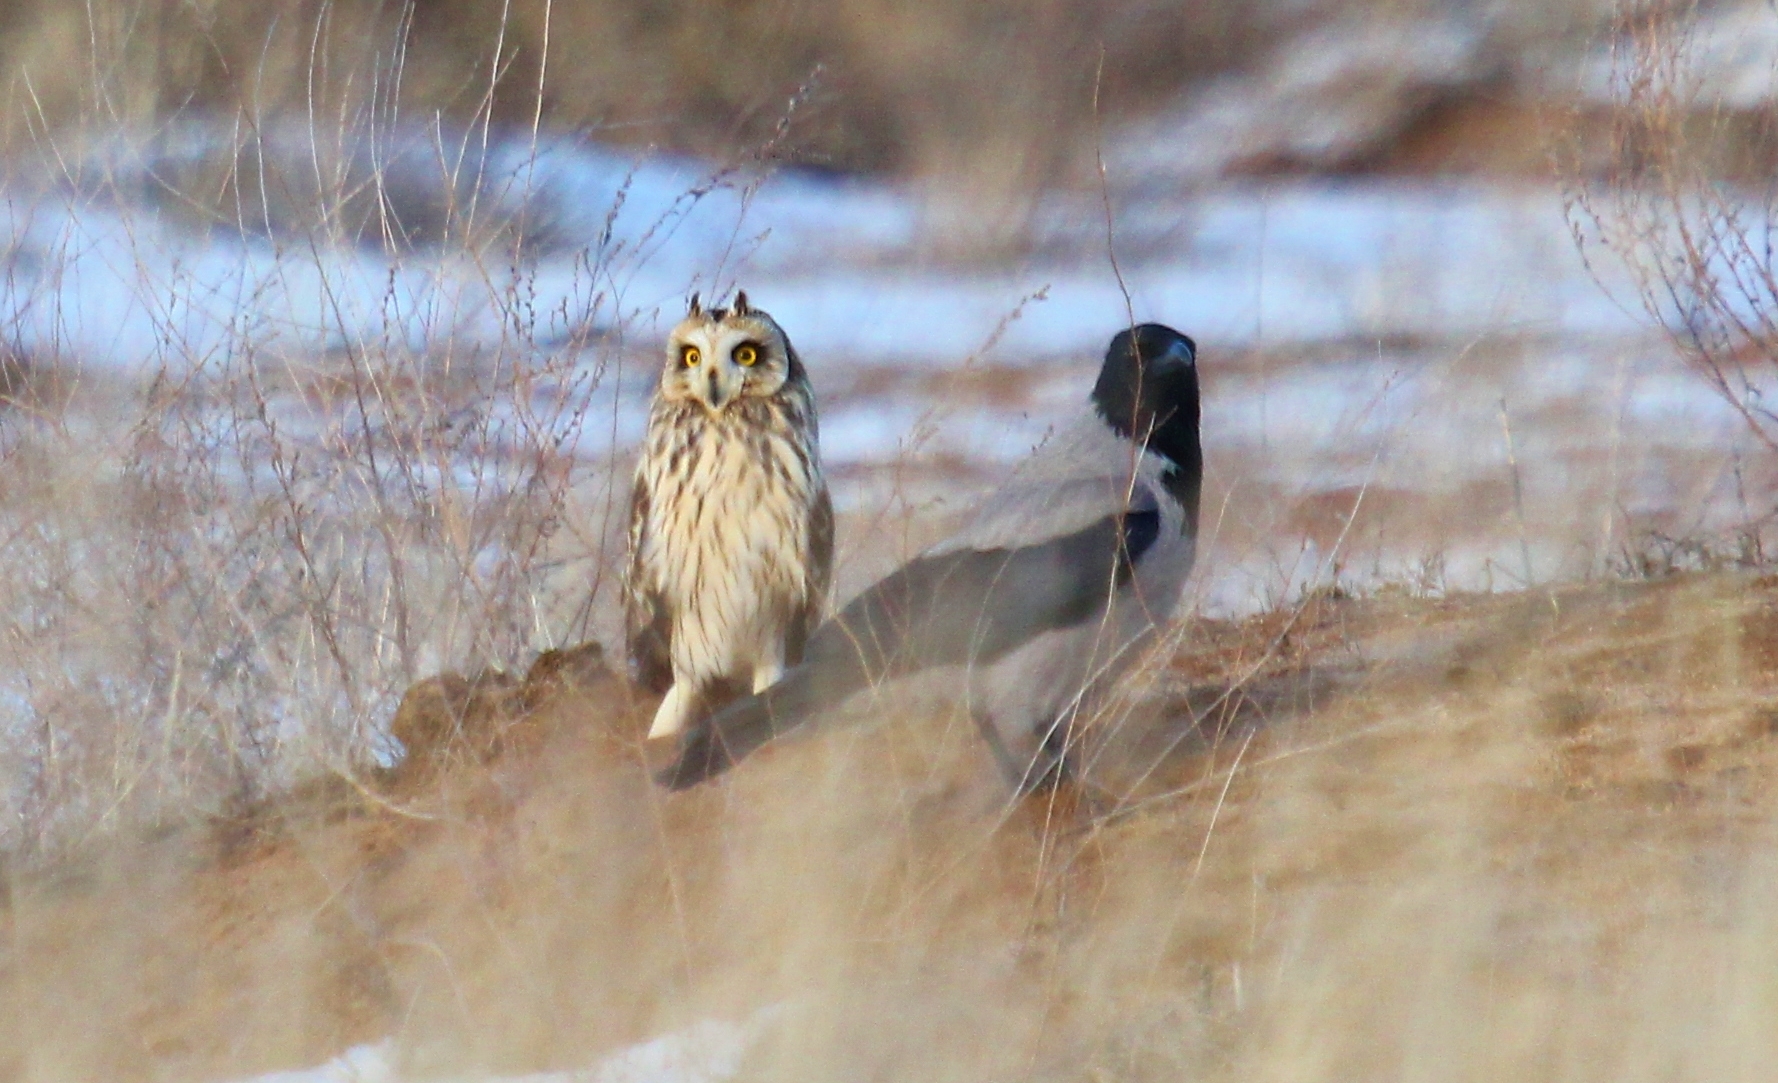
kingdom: Animalia
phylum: Chordata
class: Aves
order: Strigiformes
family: Strigidae
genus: Asio
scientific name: Asio flammeus
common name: Short-eared owl
